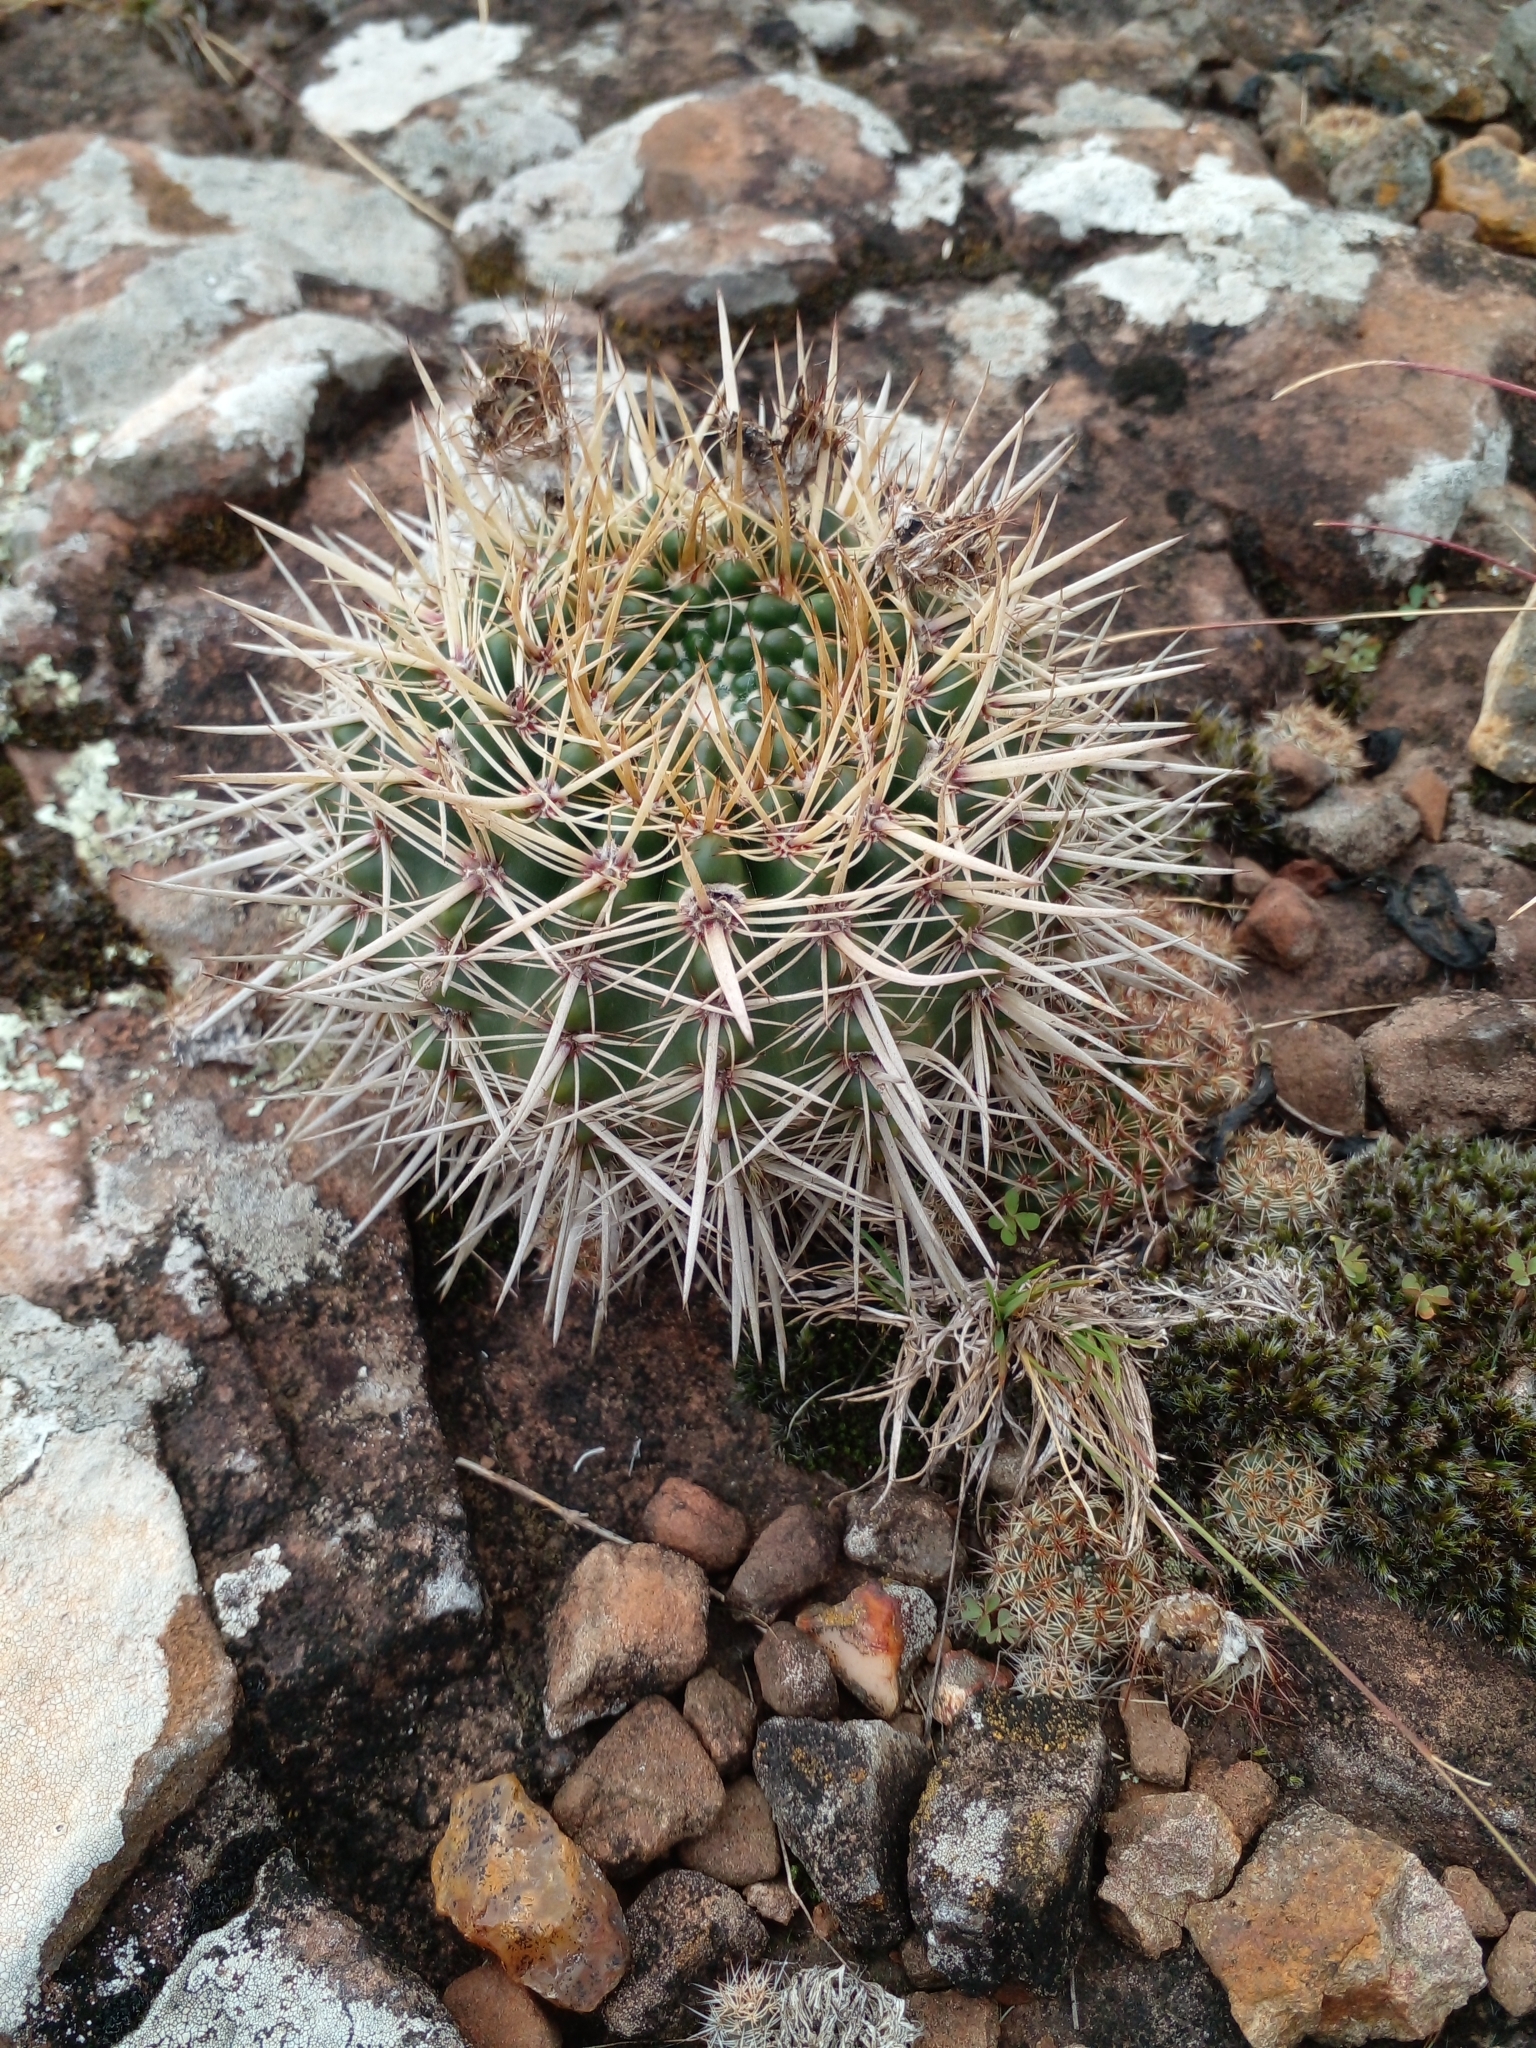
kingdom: Plantae
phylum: Tracheophyta
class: Magnoliopsida
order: Caryophyllales
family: Cactaceae
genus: Parodia
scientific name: Parodia mammulosa
